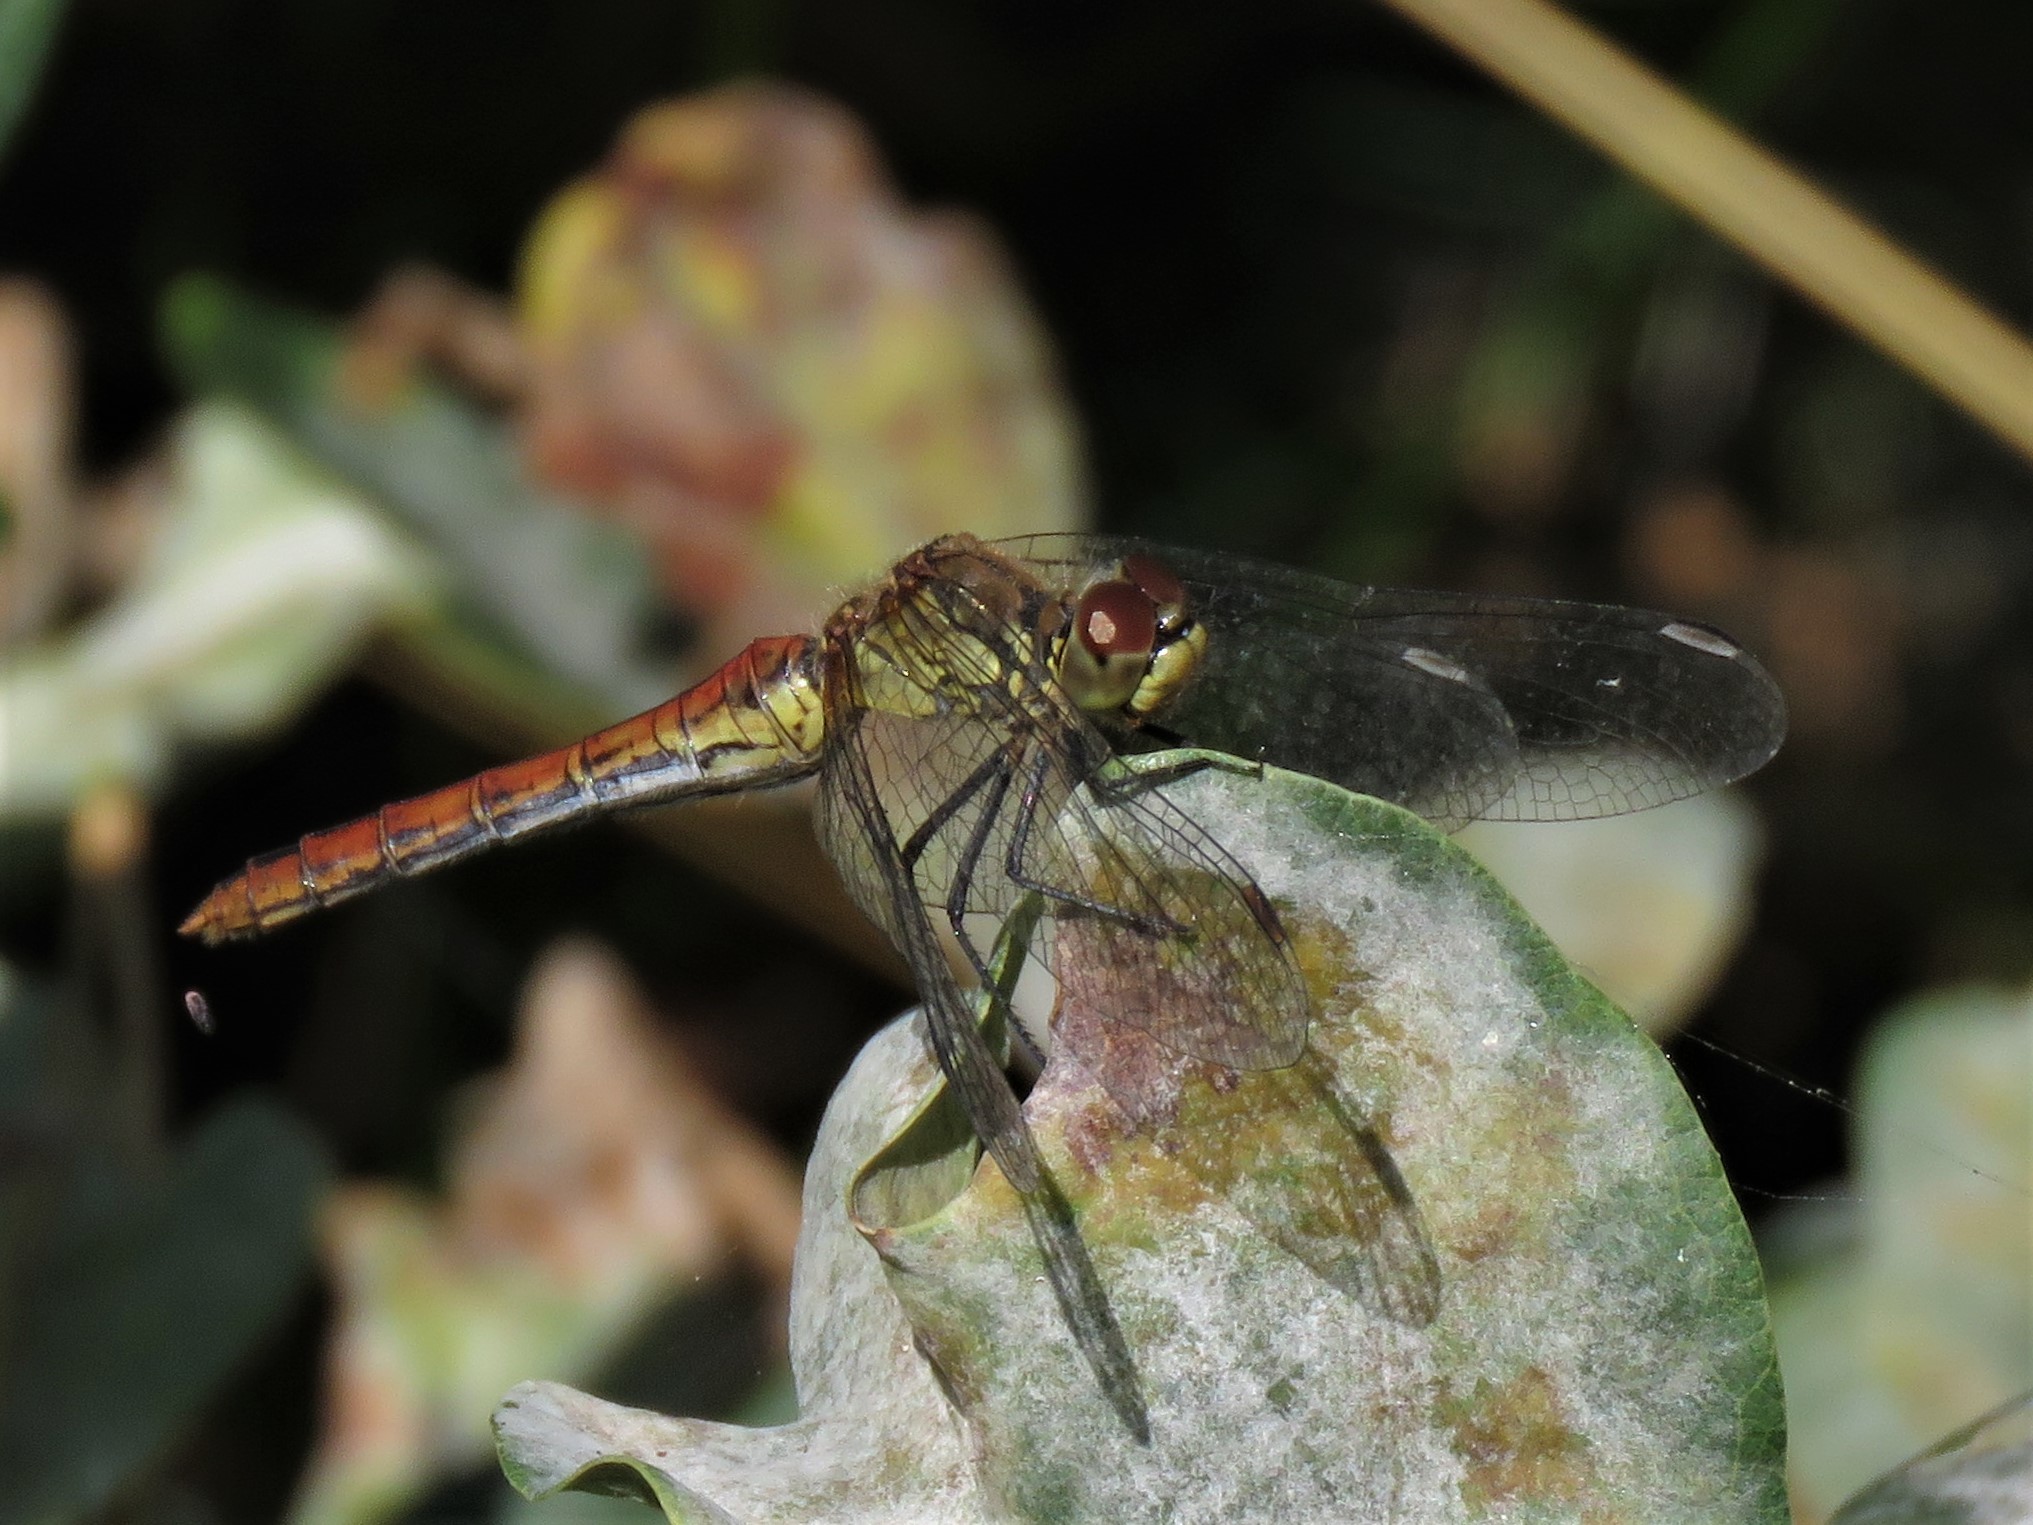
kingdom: Animalia
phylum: Arthropoda
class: Insecta
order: Odonata
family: Libellulidae
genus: Sympetrum
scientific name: Sympetrum sanguineum
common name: Ruddy darter
